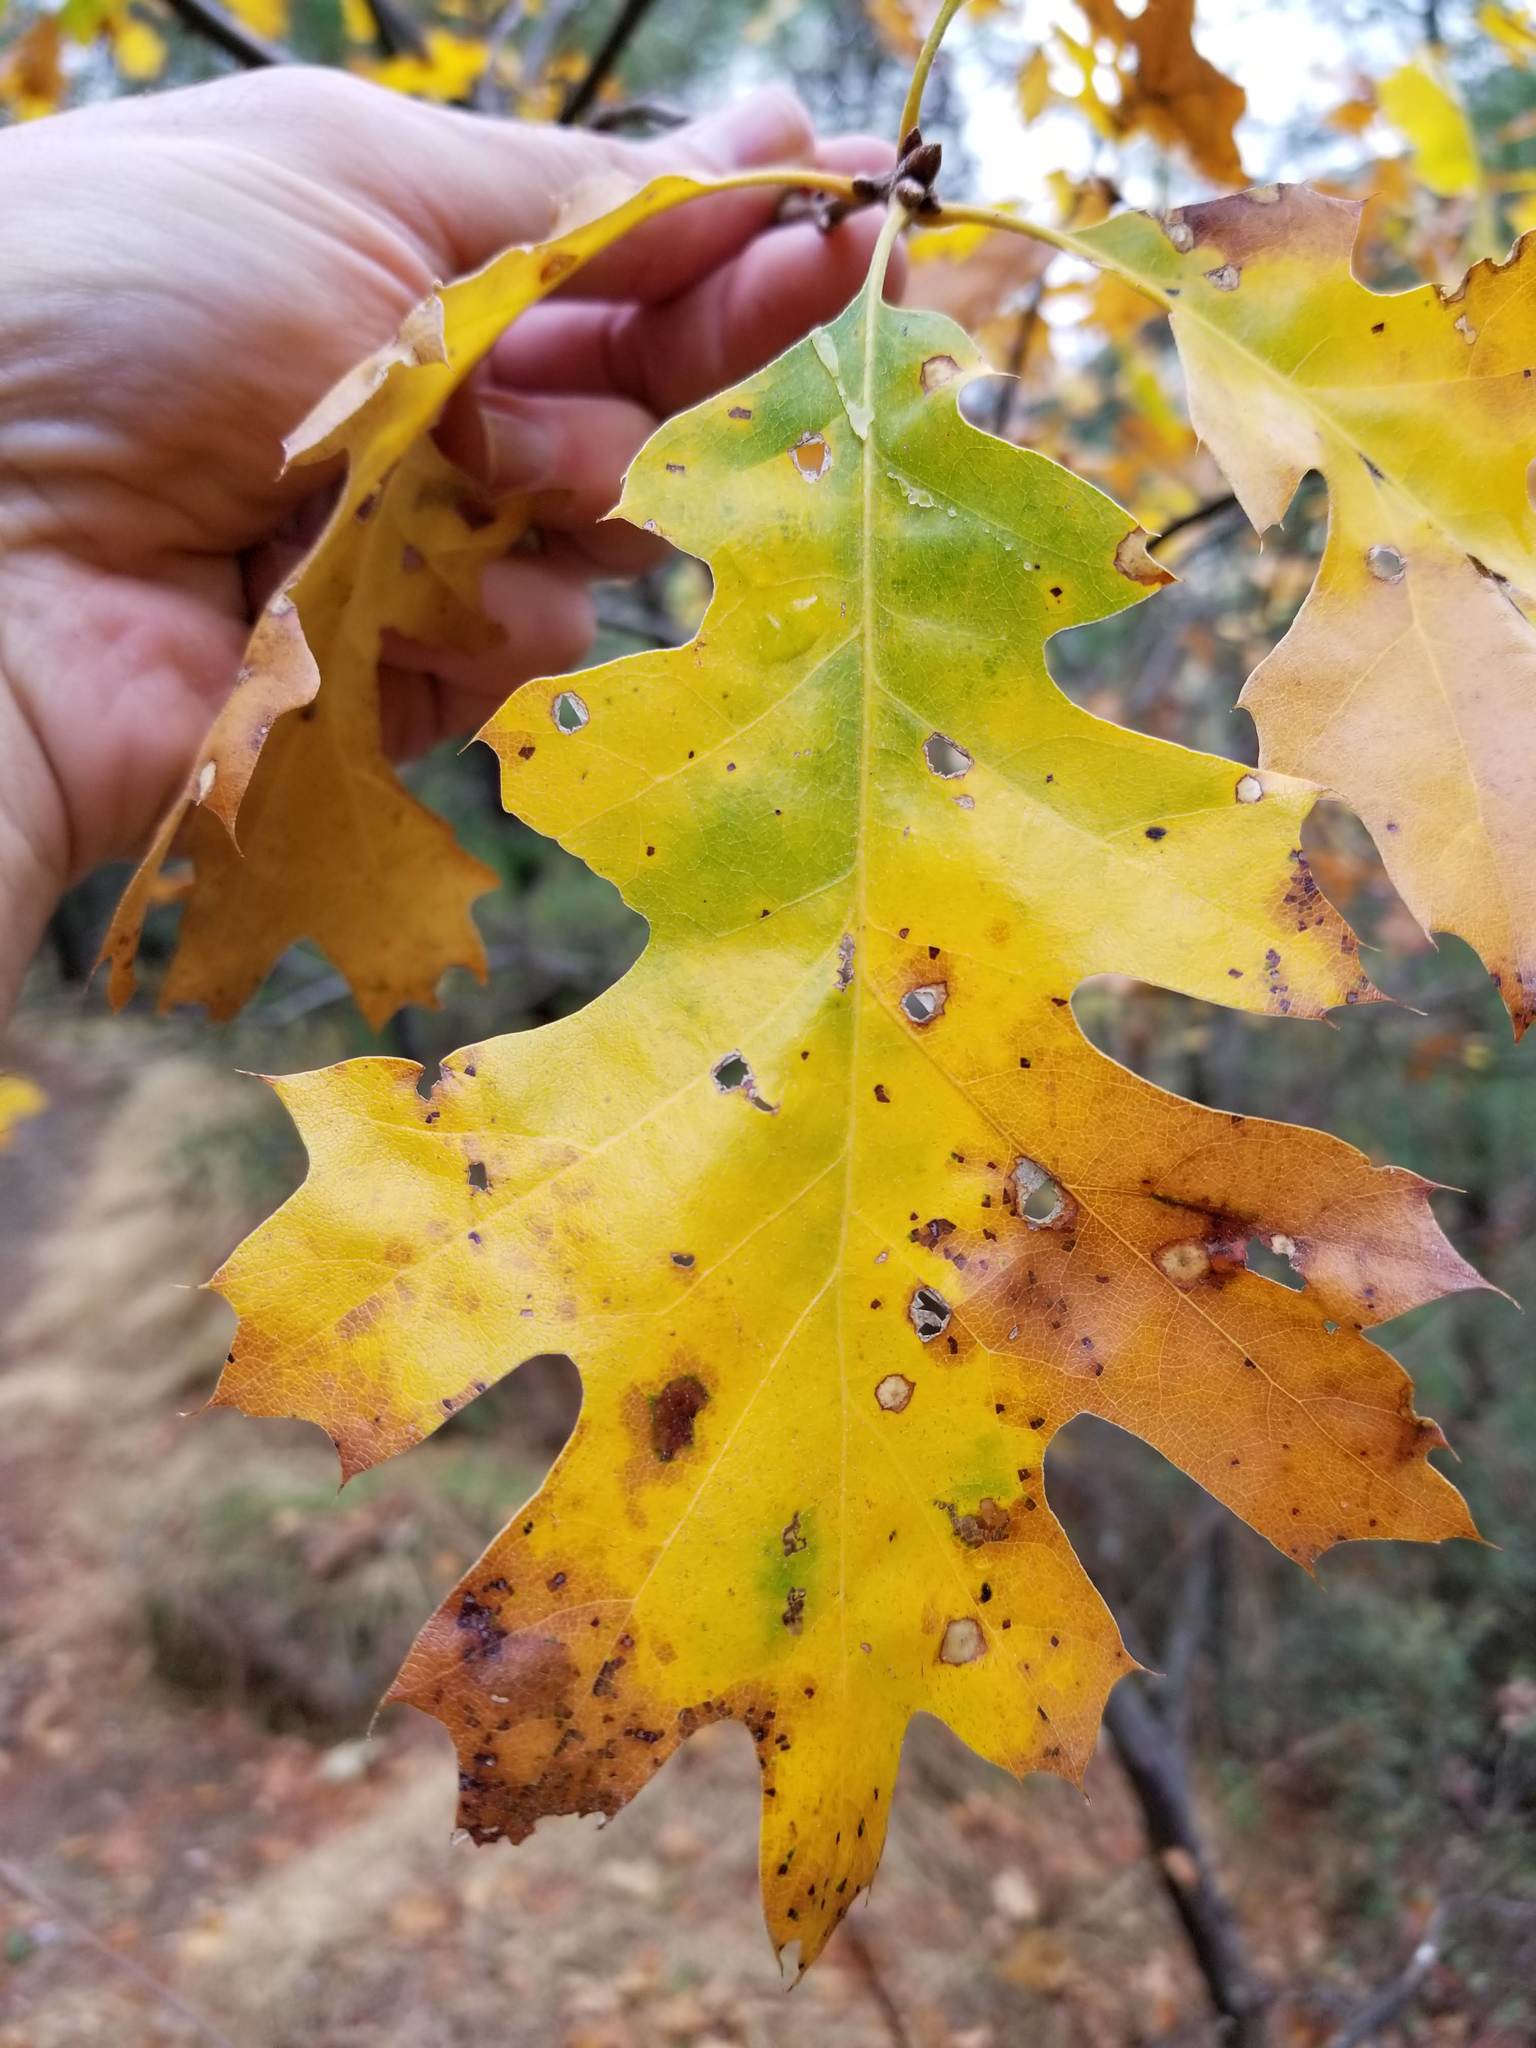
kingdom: Plantae
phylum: Tracheophyta
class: Magnoliopsida
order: Fagales
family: Fagaceae
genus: Quercus
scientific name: Quercus kelloggii
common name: California black oak
